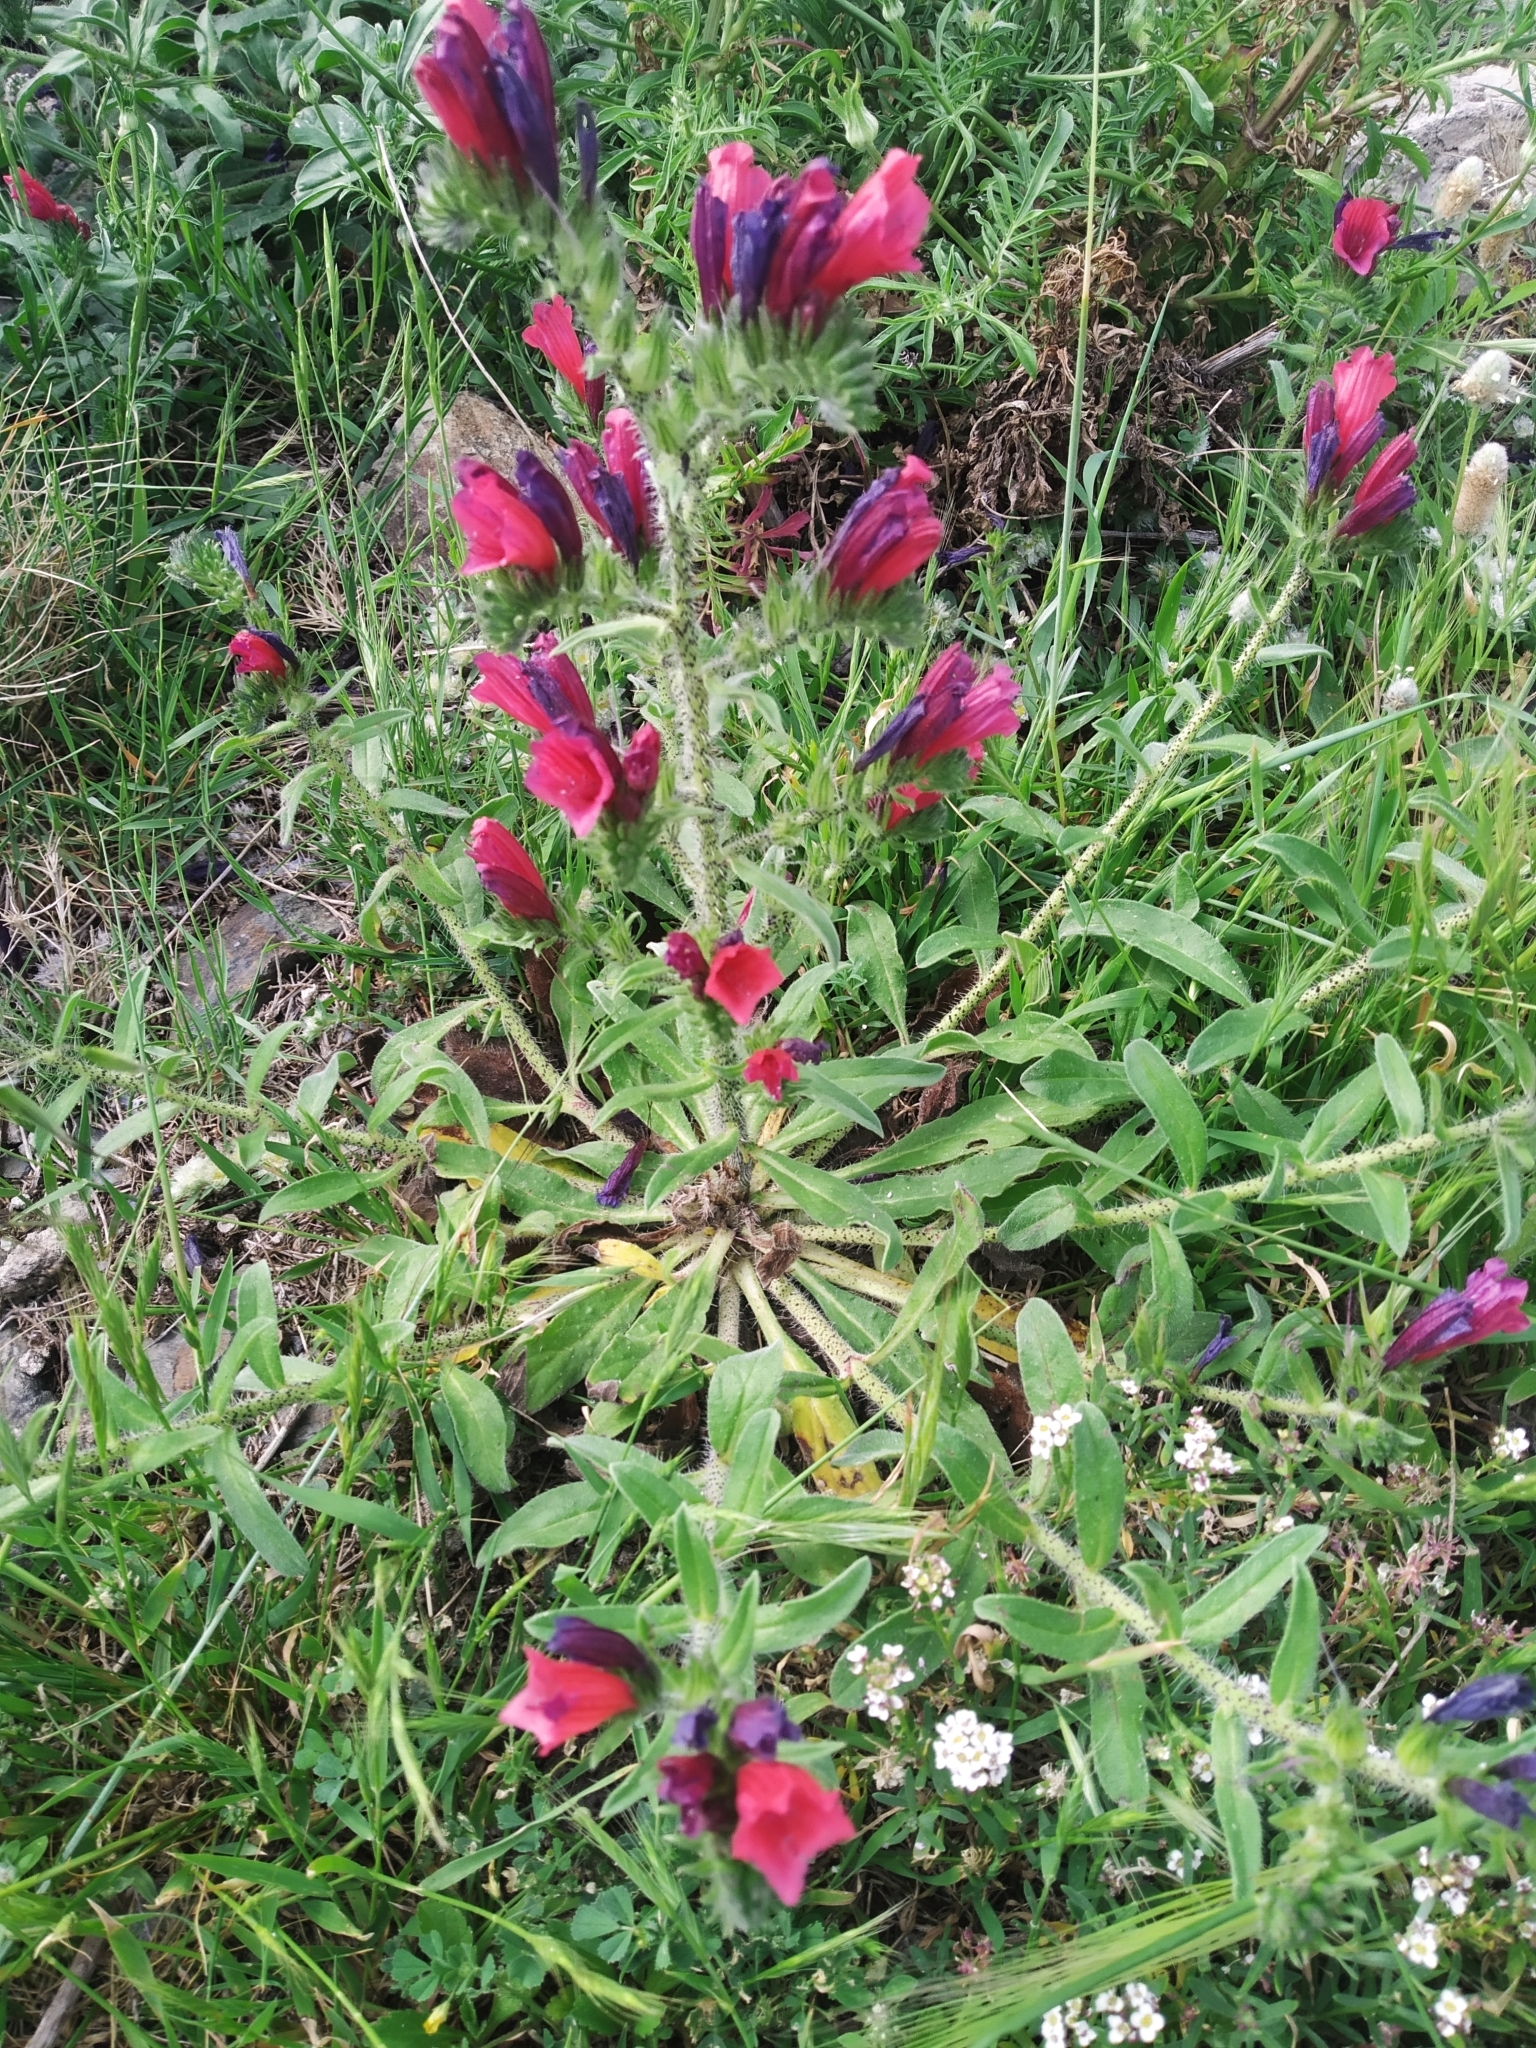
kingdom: Plantae
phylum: Tracheophyta
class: Magnoliopsida
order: Boraginales
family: Boraginaceae
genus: Echium
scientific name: Echium creticum
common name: Cretan viper's bugloss
